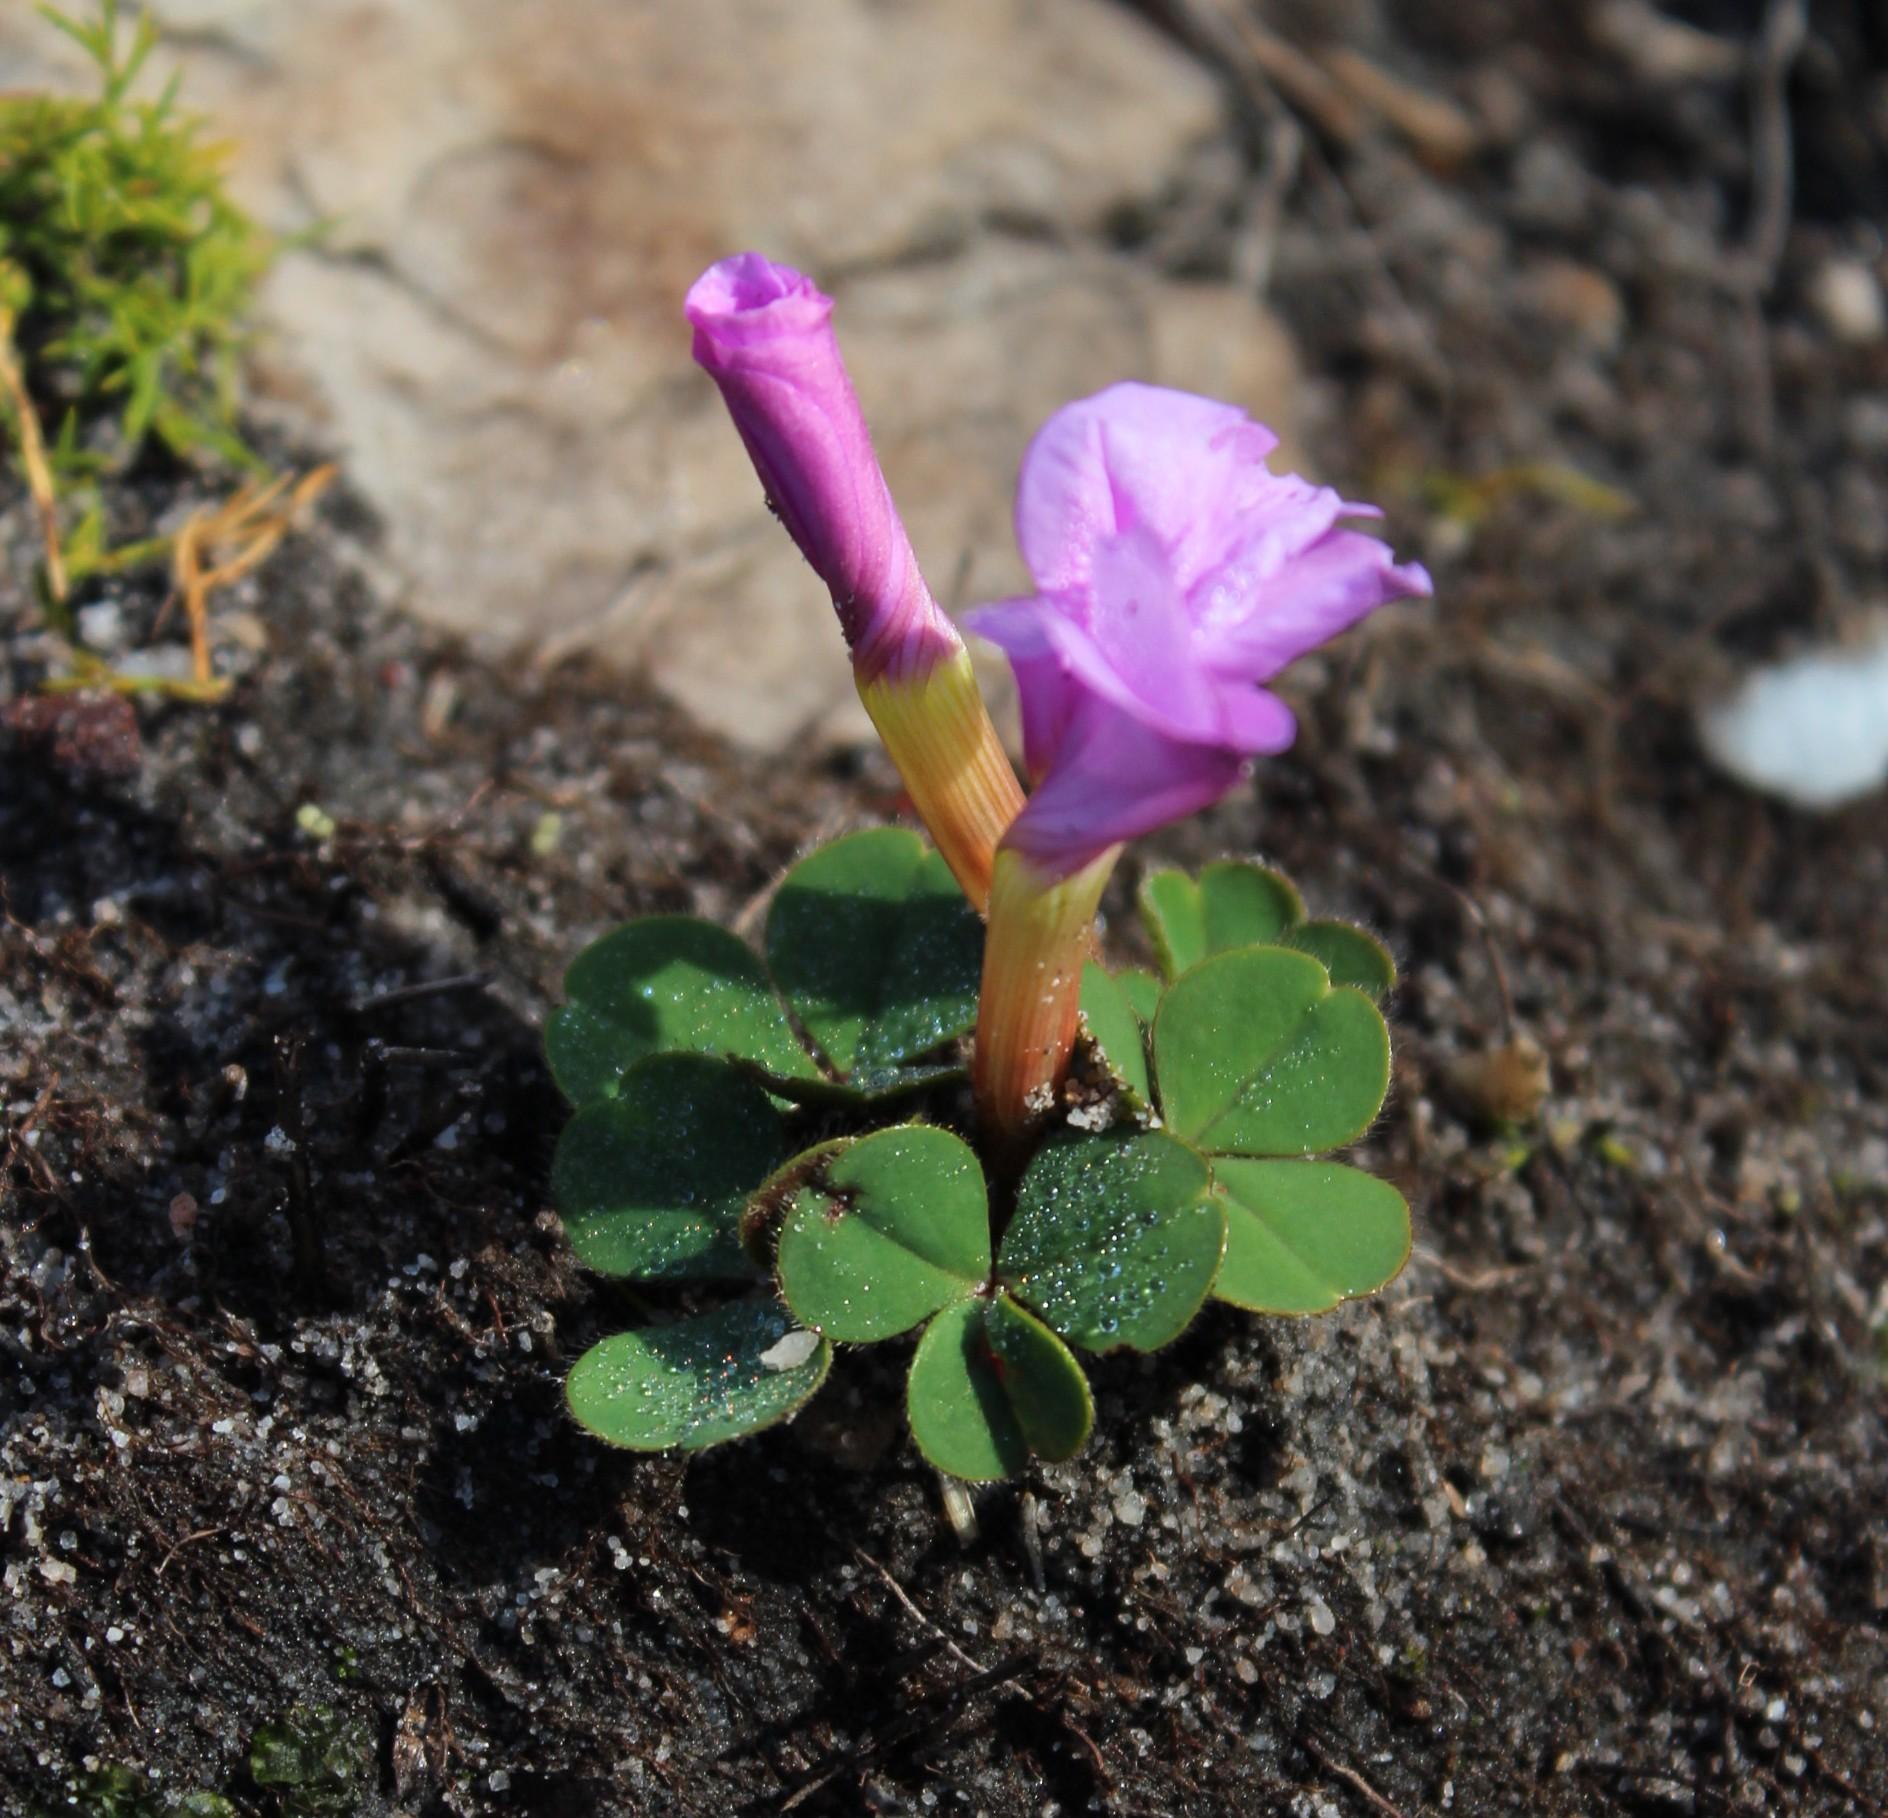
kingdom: Plantae
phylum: Tracheophyta
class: Magnoliopsida
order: Oxalidales
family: Oxalidaceae
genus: Oxalis
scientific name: Oxalis eckloniana
